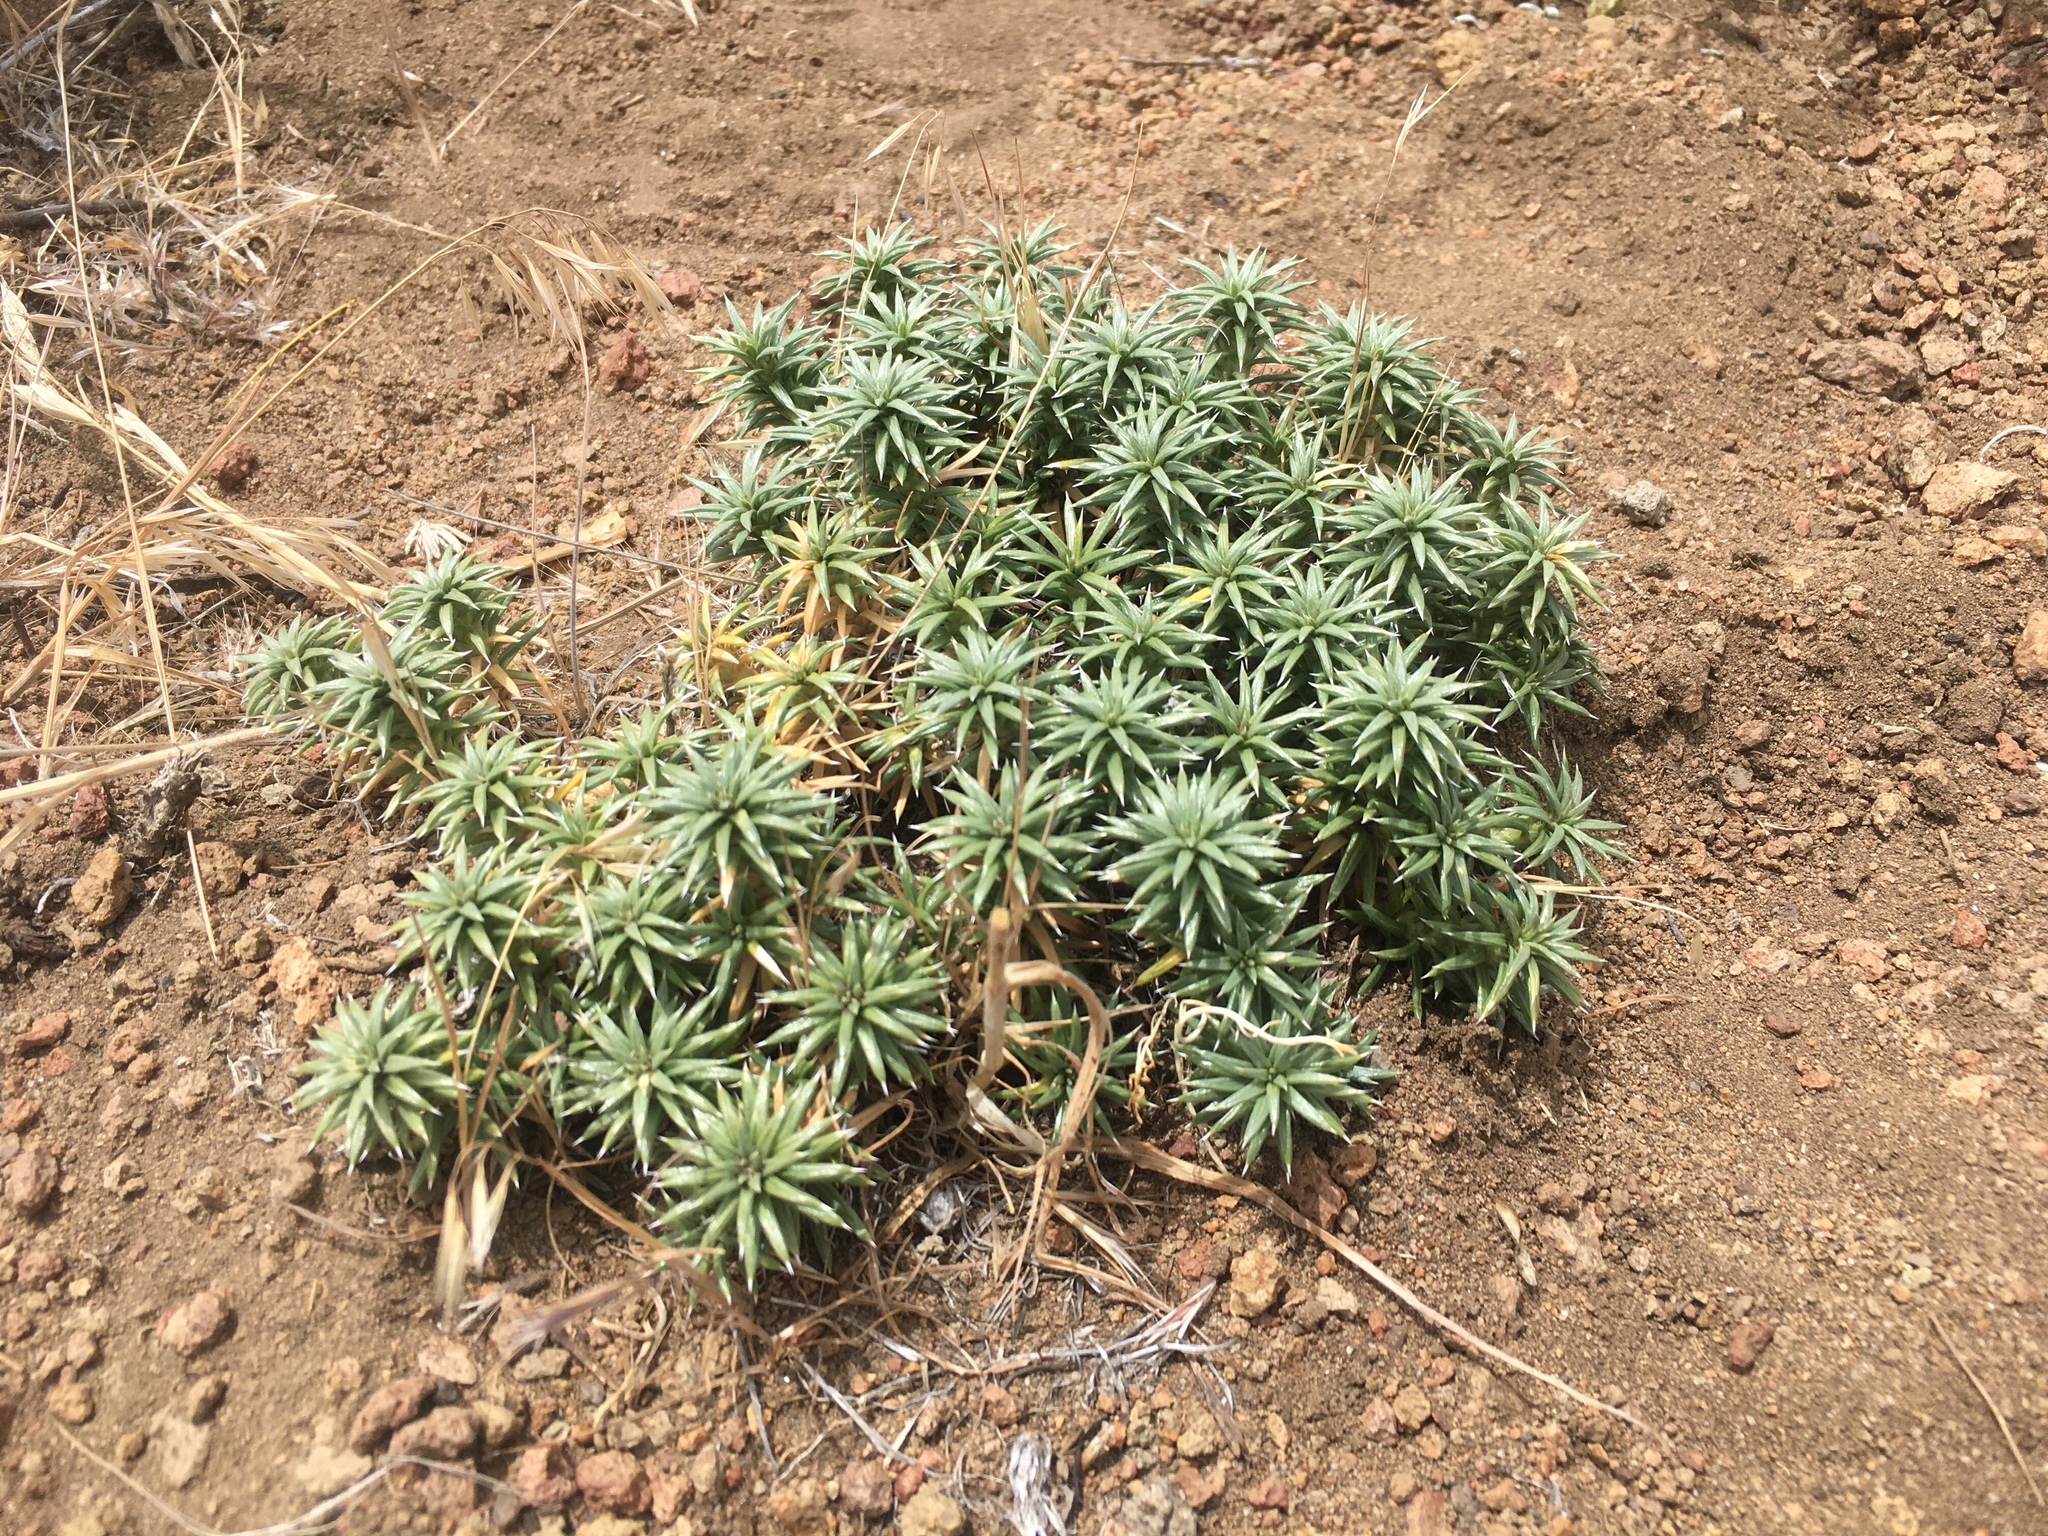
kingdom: Plantae
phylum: Tracheophyta
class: Magnoliopsida
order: Asterales
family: Asteraceae
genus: Perezia
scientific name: Perezia linearis
